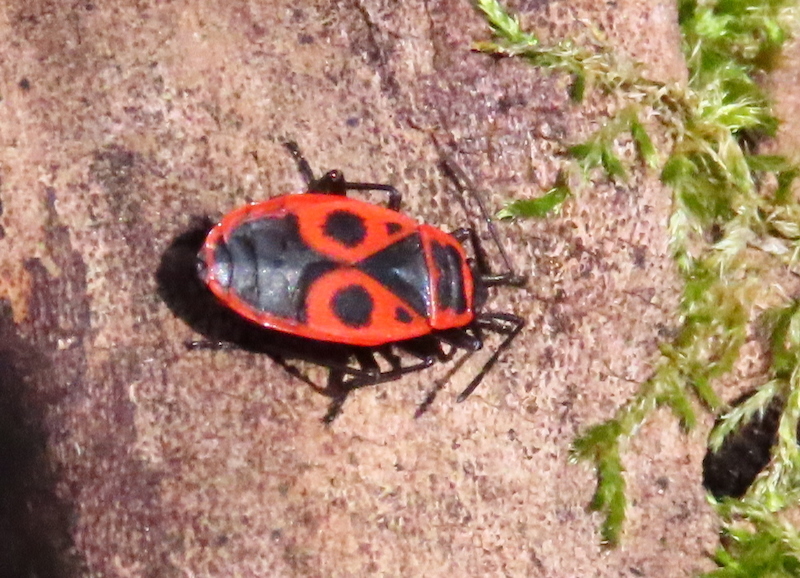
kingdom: Animalia
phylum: Arthropoda
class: Insecta
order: Hemiptera
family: Pyrrhocoridae
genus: Pyrrhocoris
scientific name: Pyrrhocoris apterus
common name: Firebug
